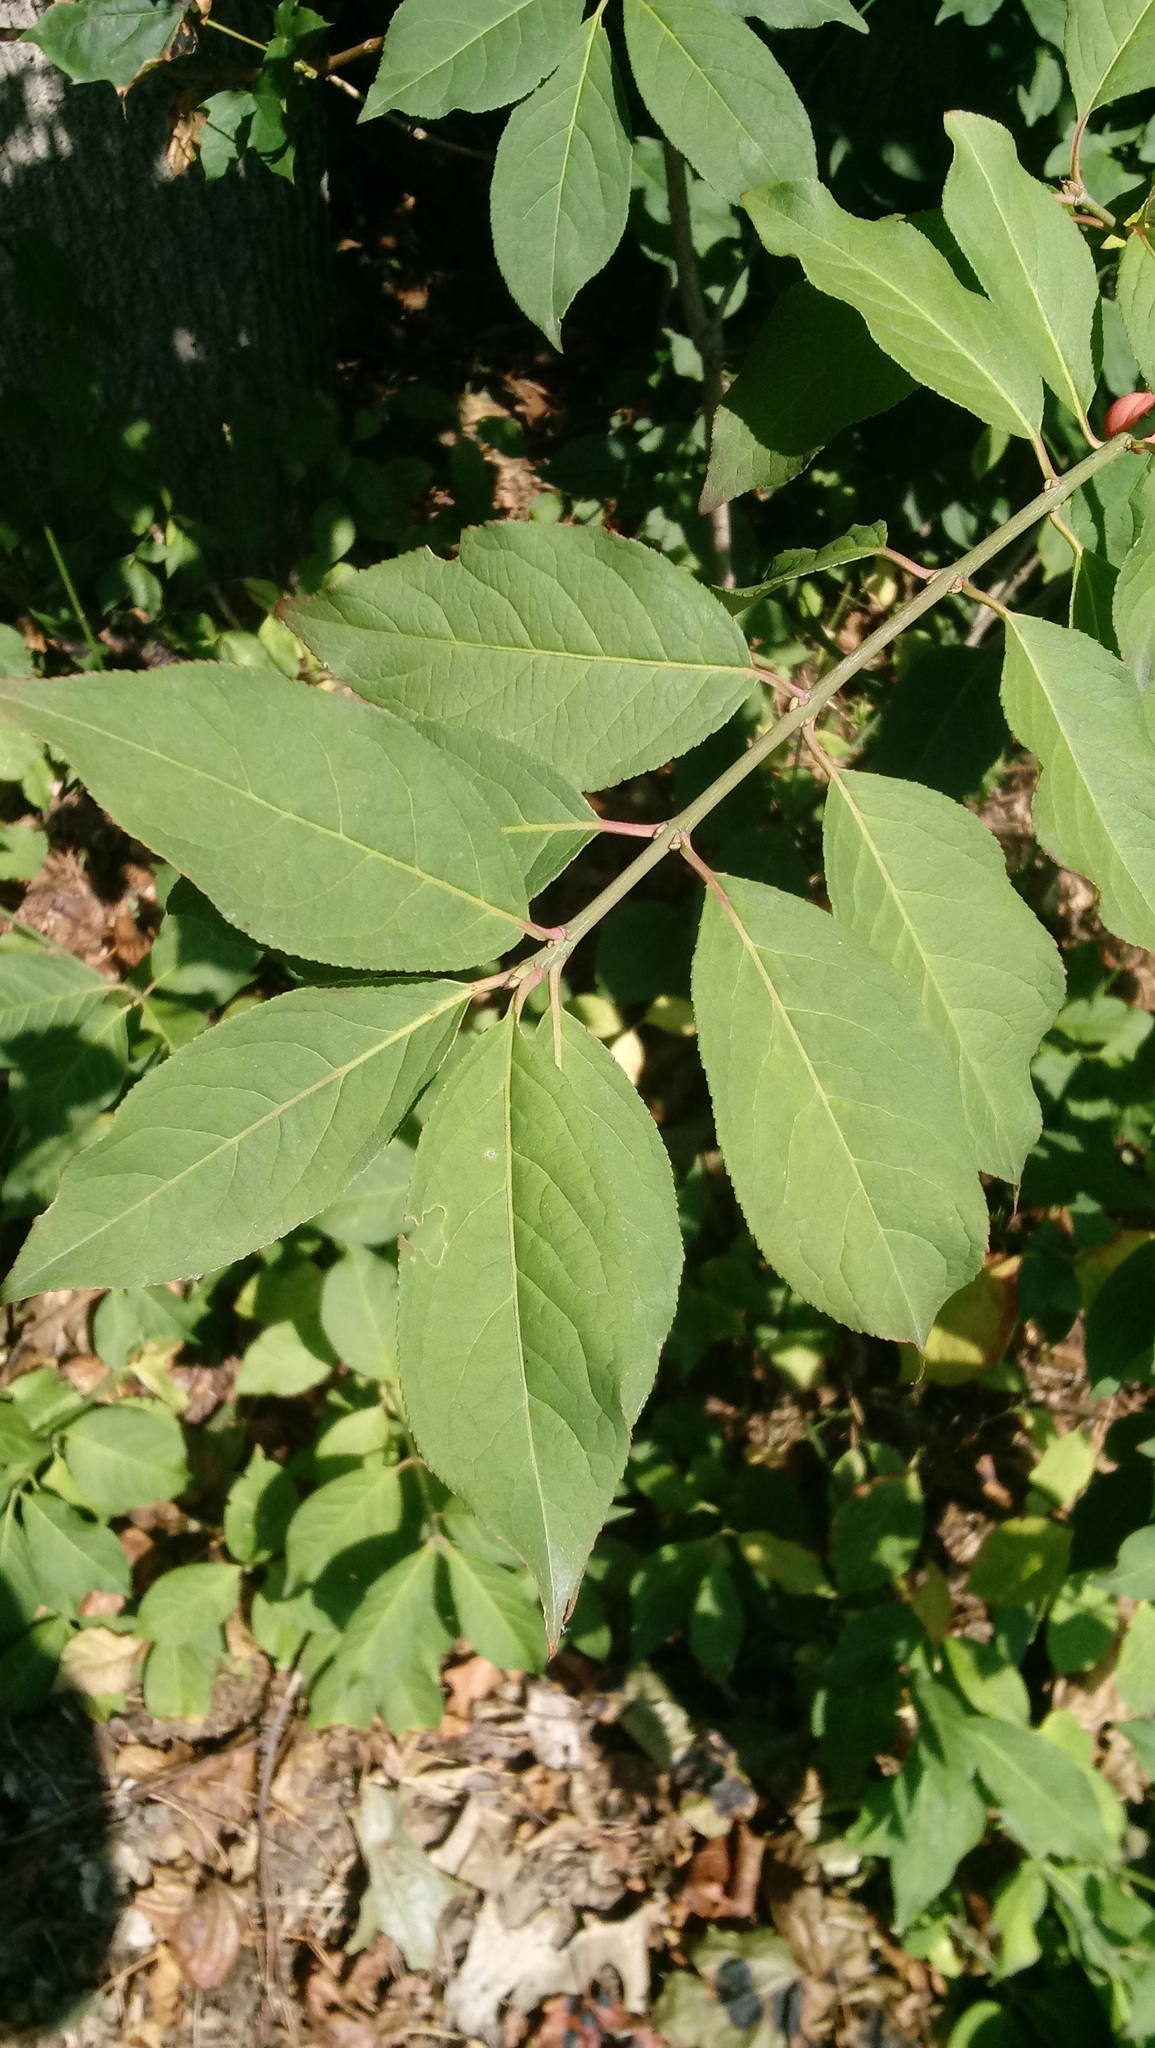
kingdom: Plantae
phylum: Tracheophyta
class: Magnoliopsida
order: Celastrales
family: Celastraceae
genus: Euonymus
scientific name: Euonymus europaeus
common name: Spindle
